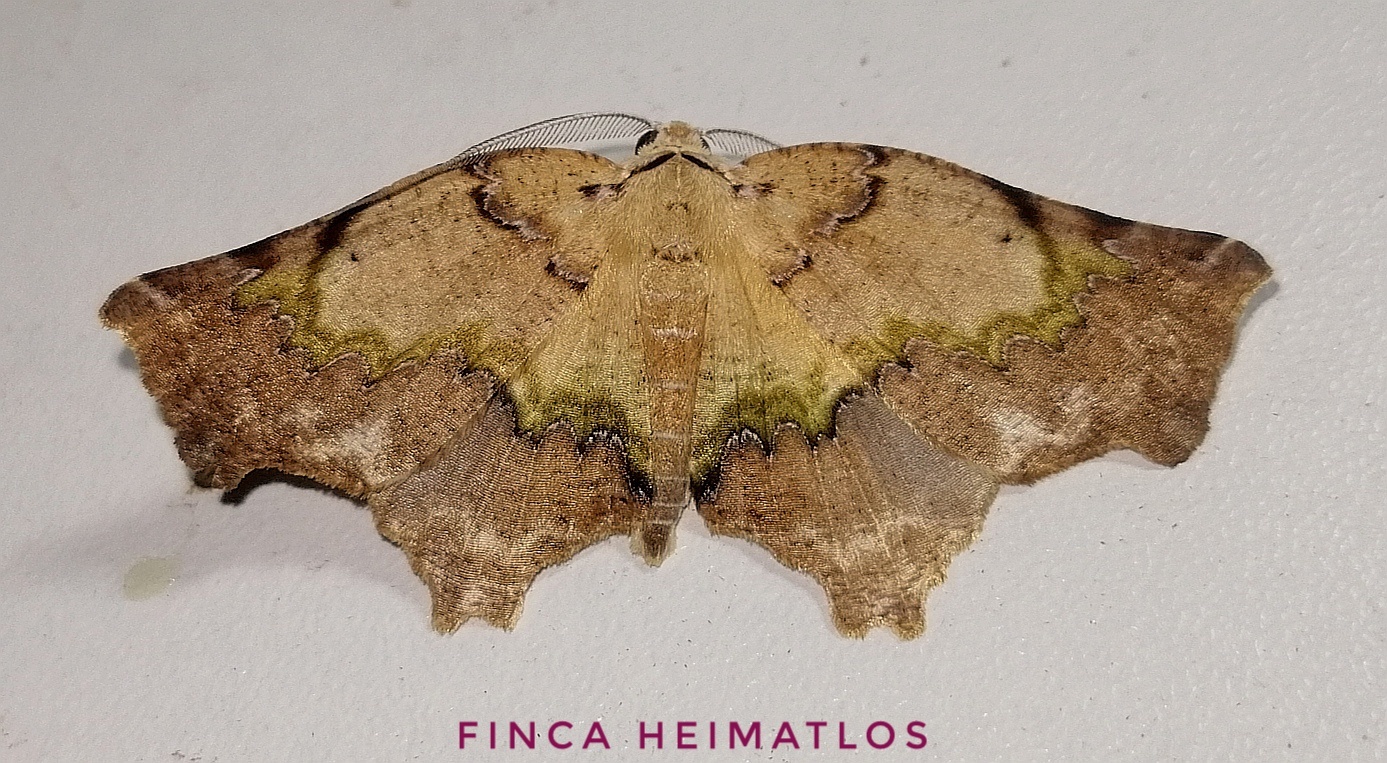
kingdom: Animalia
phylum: Arthropoda
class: Insecta
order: Lepidoptera
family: Geometridae
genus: Tmetomorpha
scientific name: Tmetomorpha bitias
